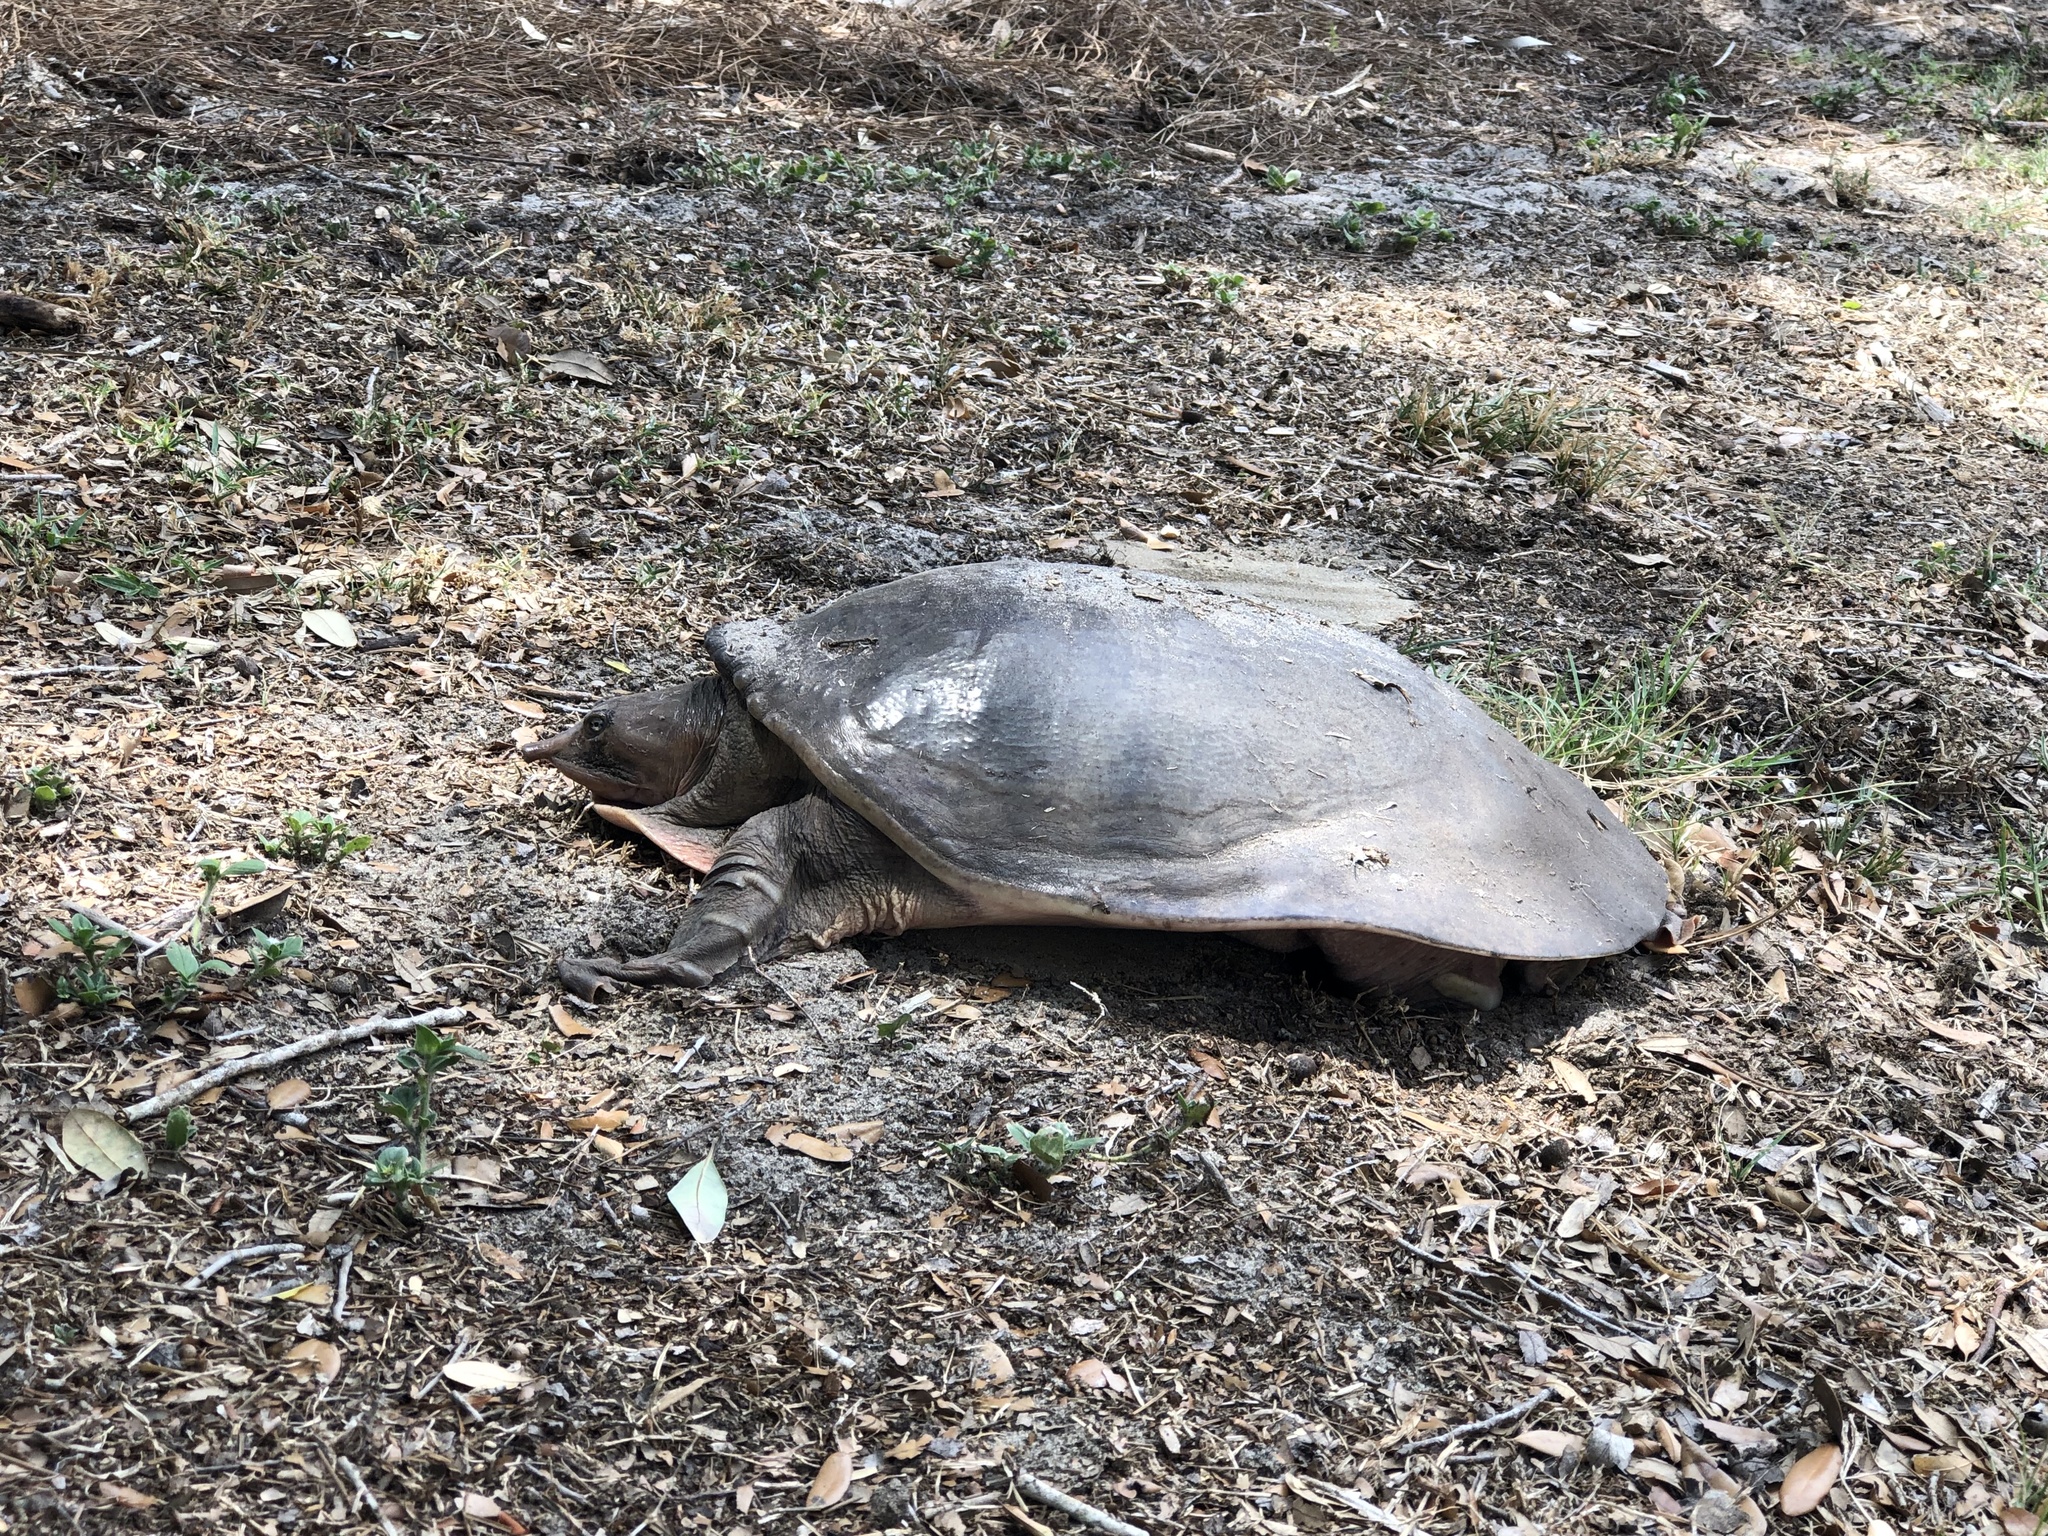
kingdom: Animalia
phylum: Chordata
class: Testudines
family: Trionychidae
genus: Apalone
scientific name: Apalone ferox
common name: Florida softshell turtle
